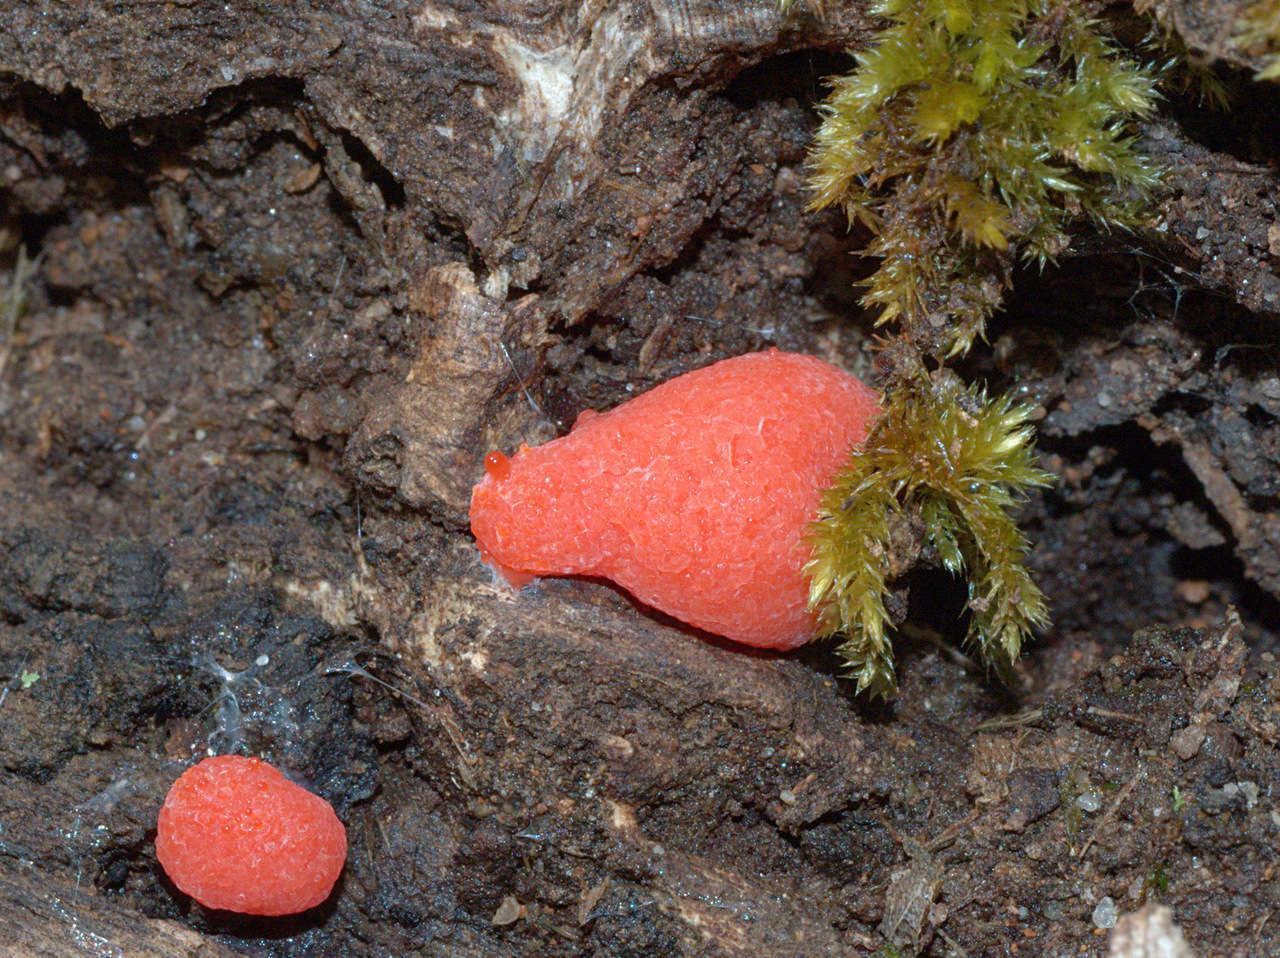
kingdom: Protozoa
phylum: Mycetozoa
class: Myxomycetes
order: Cribrariales
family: Tubiferaceae
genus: Tubifera
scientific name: Tubifera ferruginosa
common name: Red raspberry slime mold
